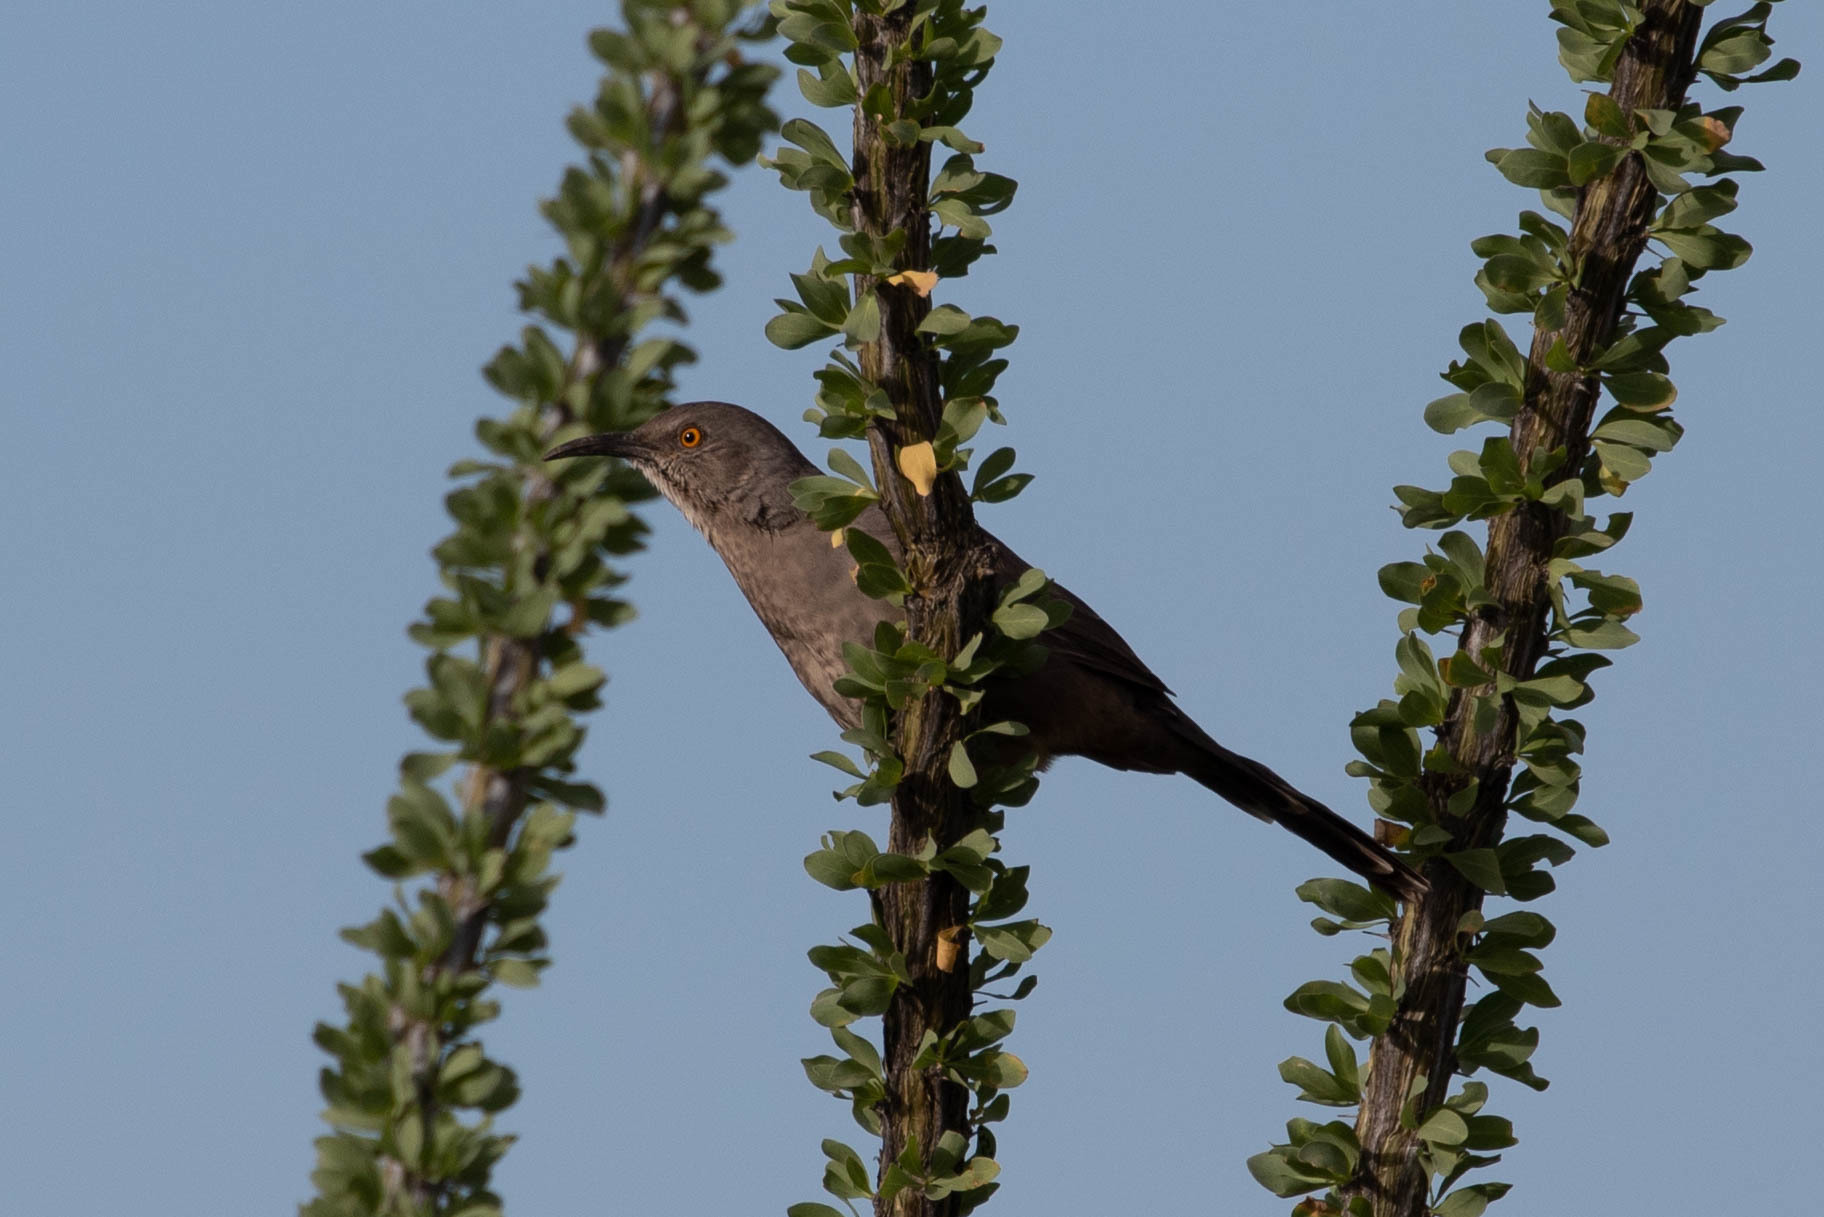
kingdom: Animalia
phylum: Chordata
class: Aves
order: Passeriformes
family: Mimidae
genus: Toxostoma
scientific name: Toxostoma curvirostre
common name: Curve-billed thrasher
